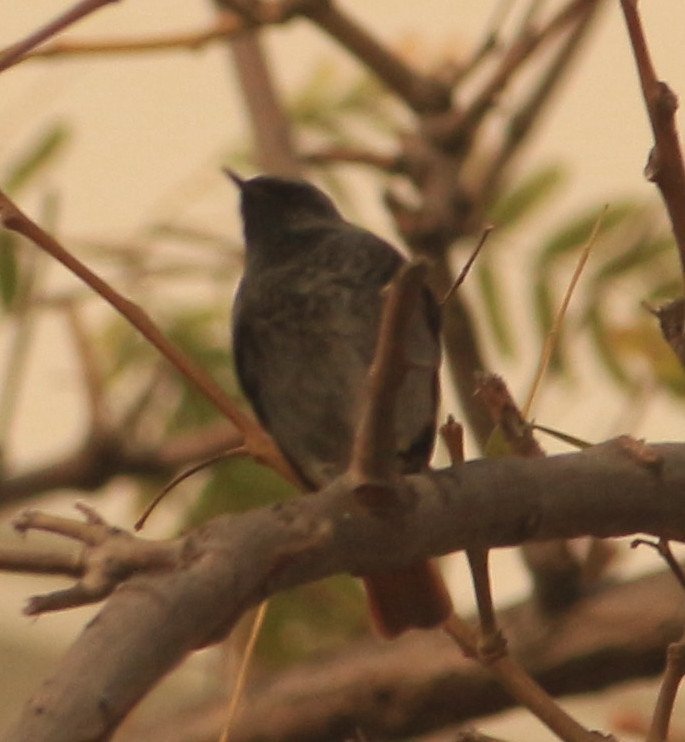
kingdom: Animalia
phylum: Chordata
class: Aves
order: Passeriformes
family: Muscicapidae
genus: Phoenicurus
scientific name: Phoenicurus ochruros
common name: Black redstart
